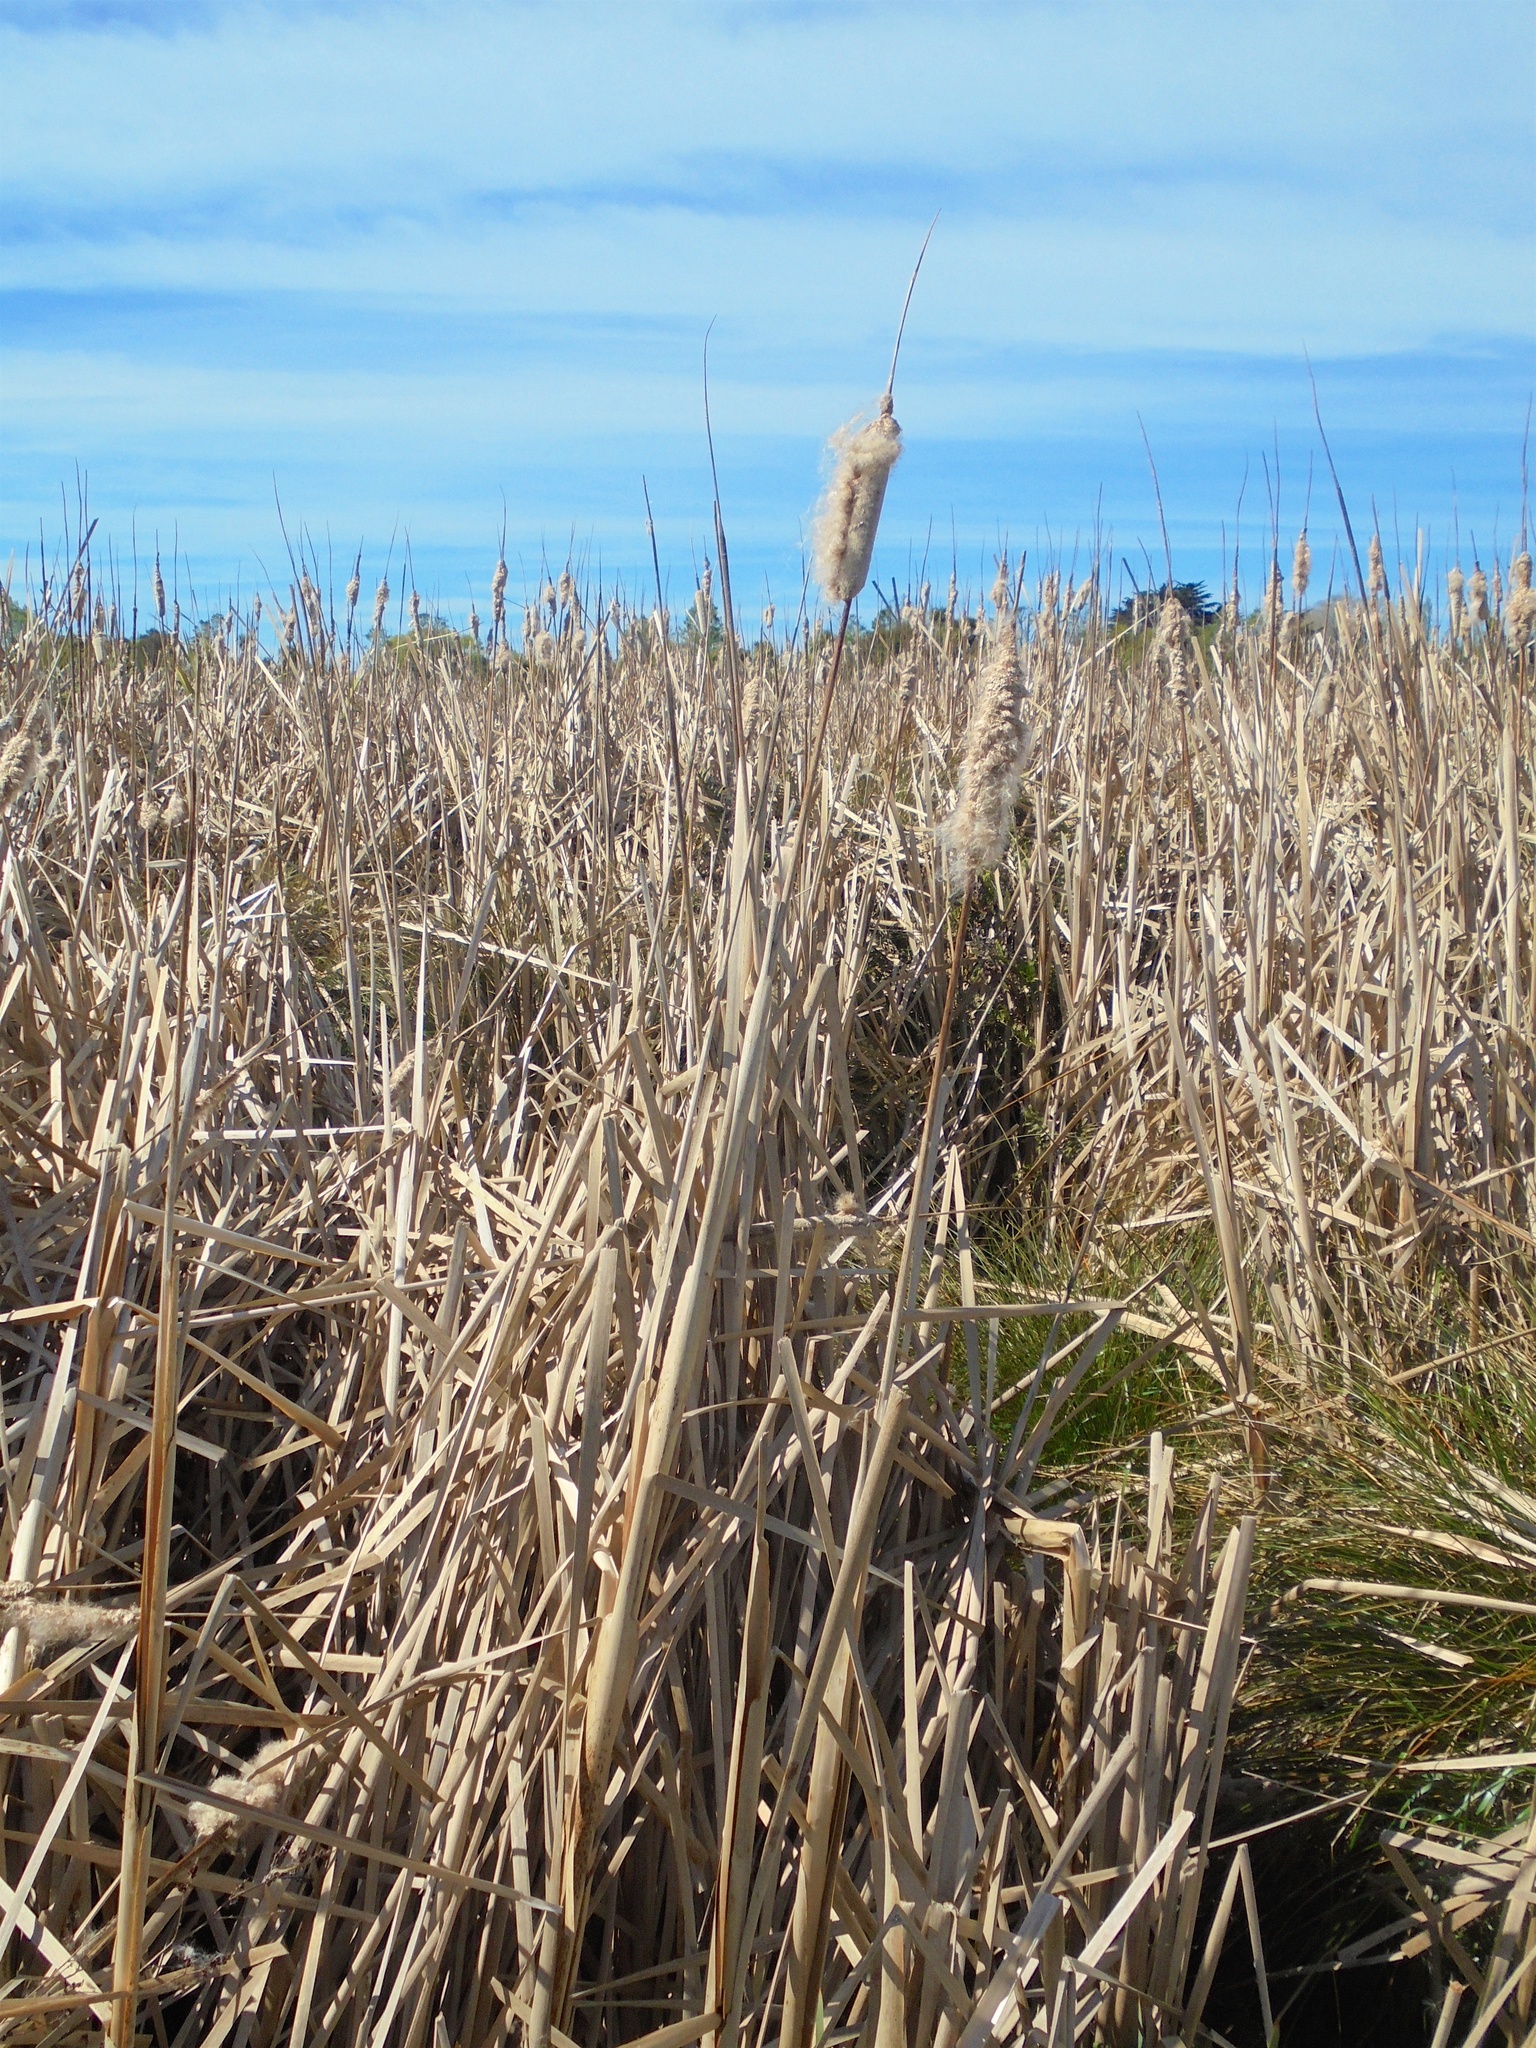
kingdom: Plantae
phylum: Tracheophyta
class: Liliopsida
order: Poales
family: Typhaceae
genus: Typha
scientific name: Typha orientalis
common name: Bullrush
